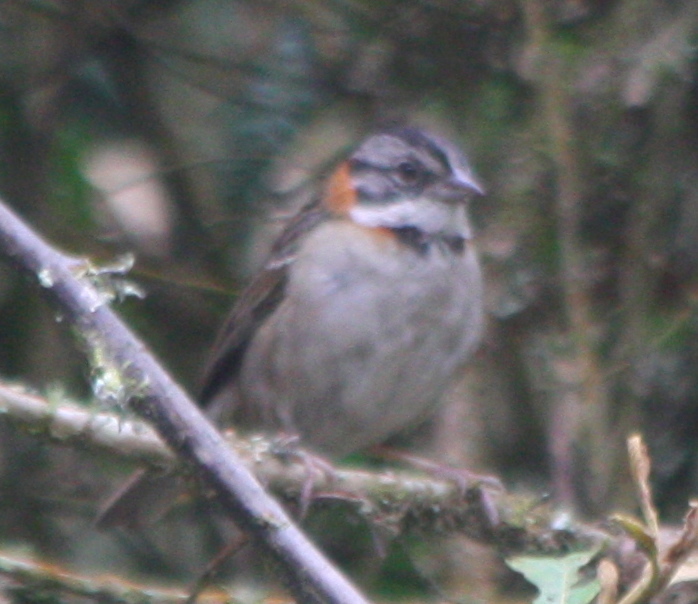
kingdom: Animalia
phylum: Chordata
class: Aves
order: Passeriformes
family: Passerellidae
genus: Zonotrichia
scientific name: Zonotrichia capensis
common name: Rufous-collared sparrow
